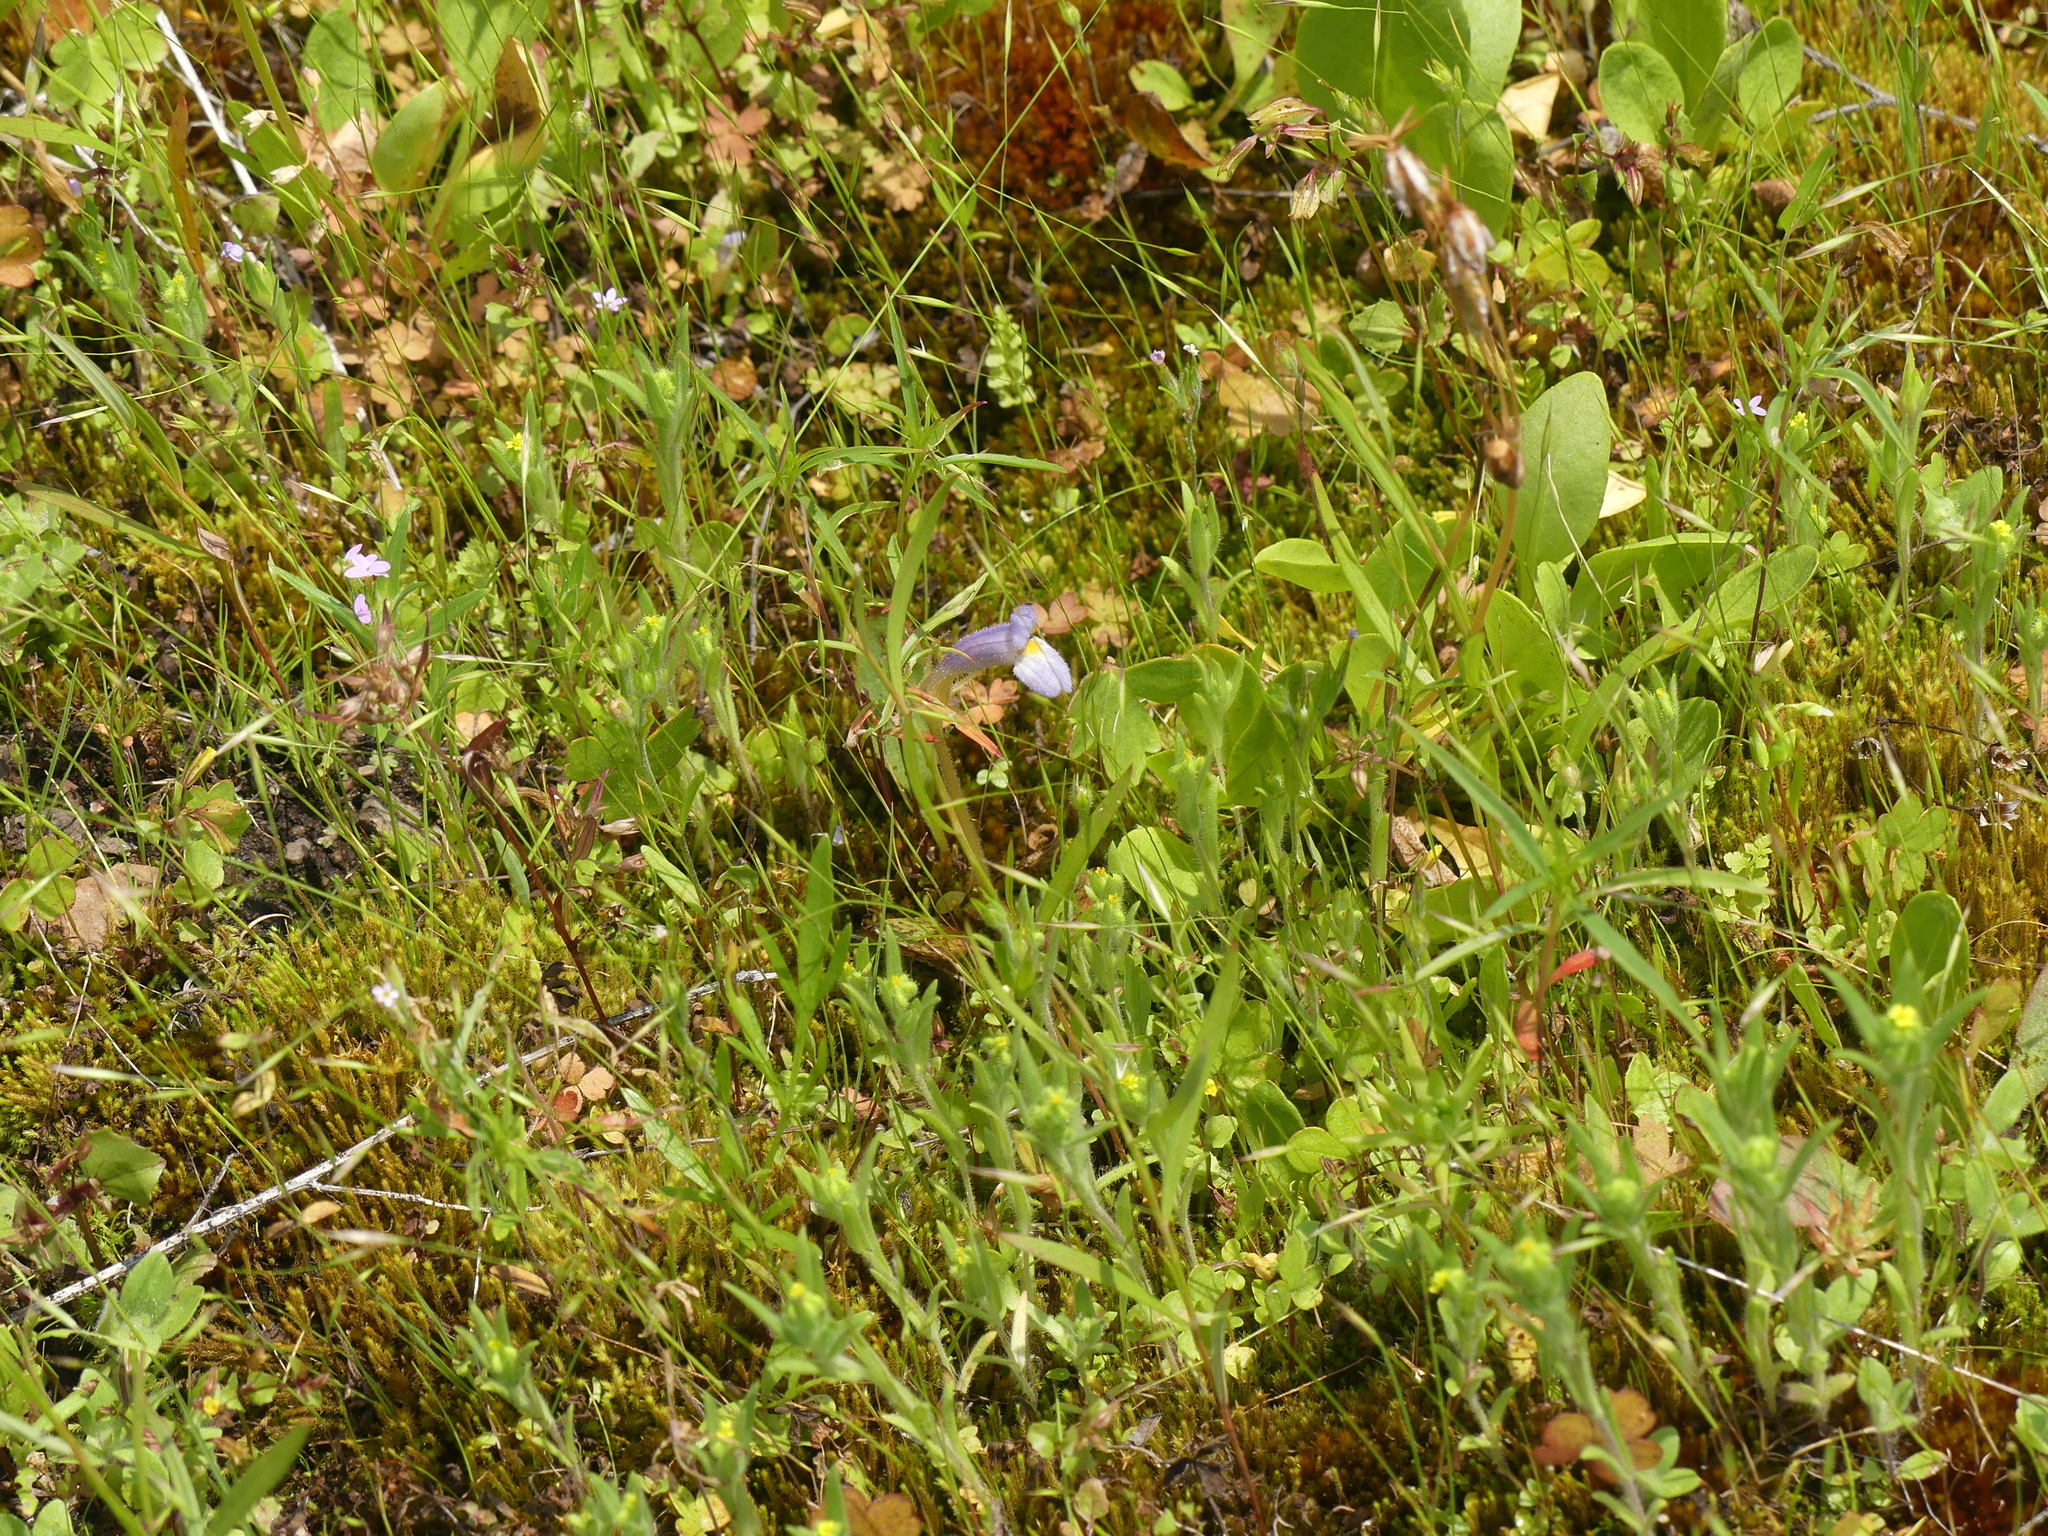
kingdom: Plantae
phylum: Tracheophyta
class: Magnoliopsida
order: Lamiales
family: Orobanchaceae
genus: Aphyllon
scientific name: Aphyllon uniflorum
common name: One-flowered broomrape
